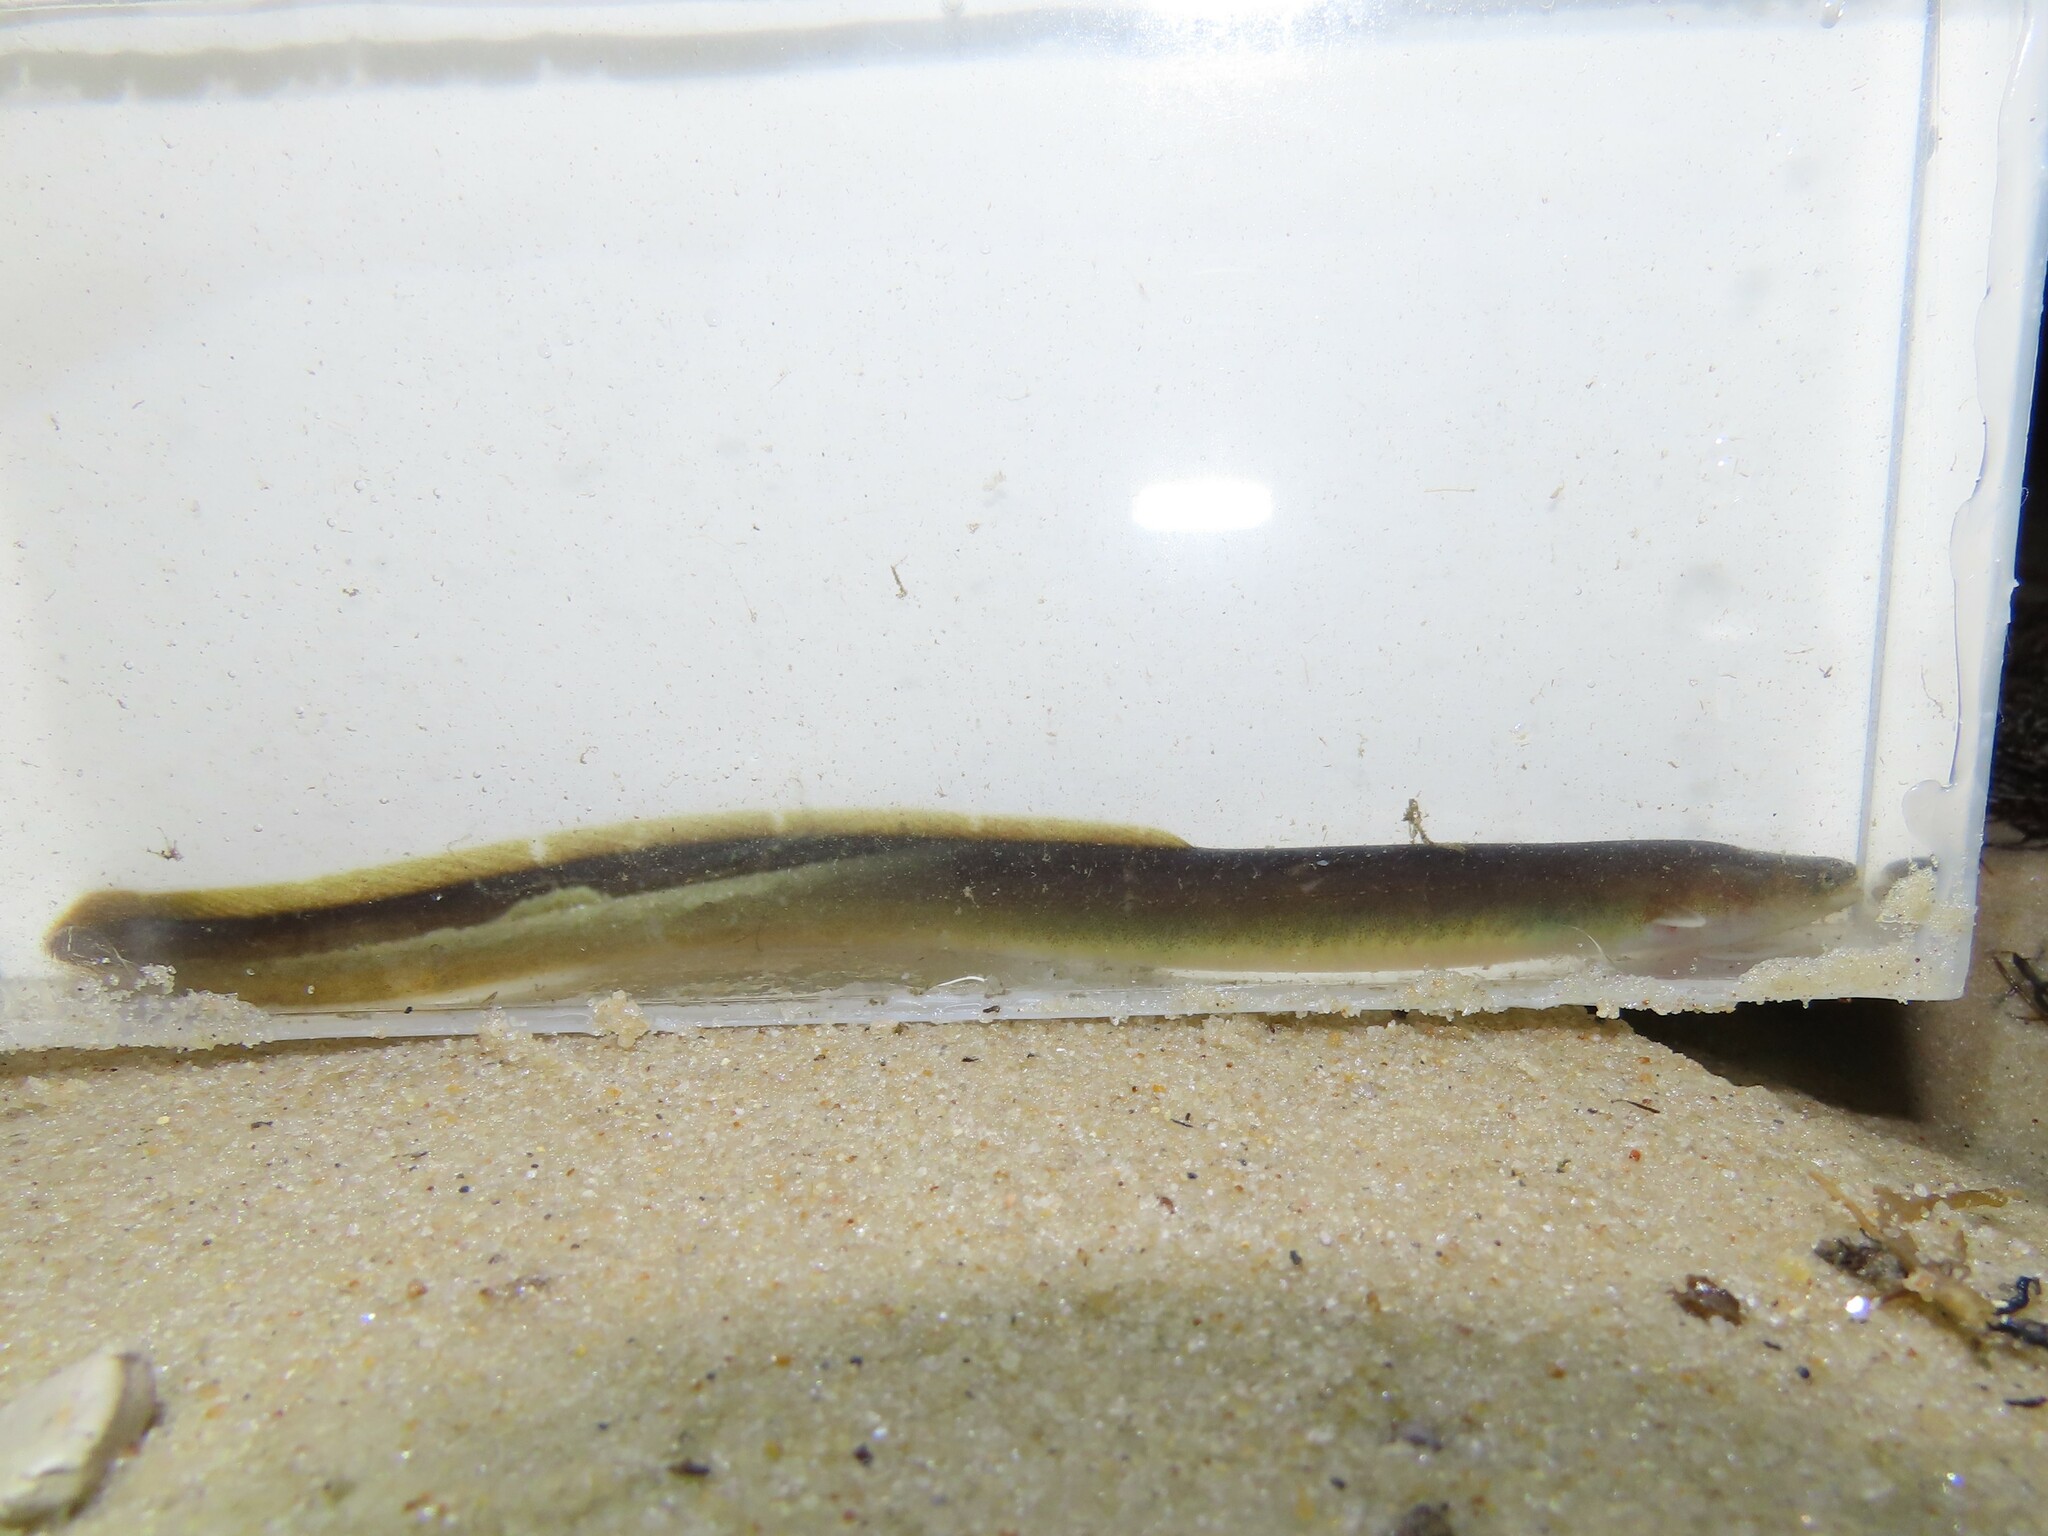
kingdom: Animalia
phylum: Chordata
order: Anguilliformes
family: Anguillidae
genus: Anguilla
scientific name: Anguilla rostrata
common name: American eel
